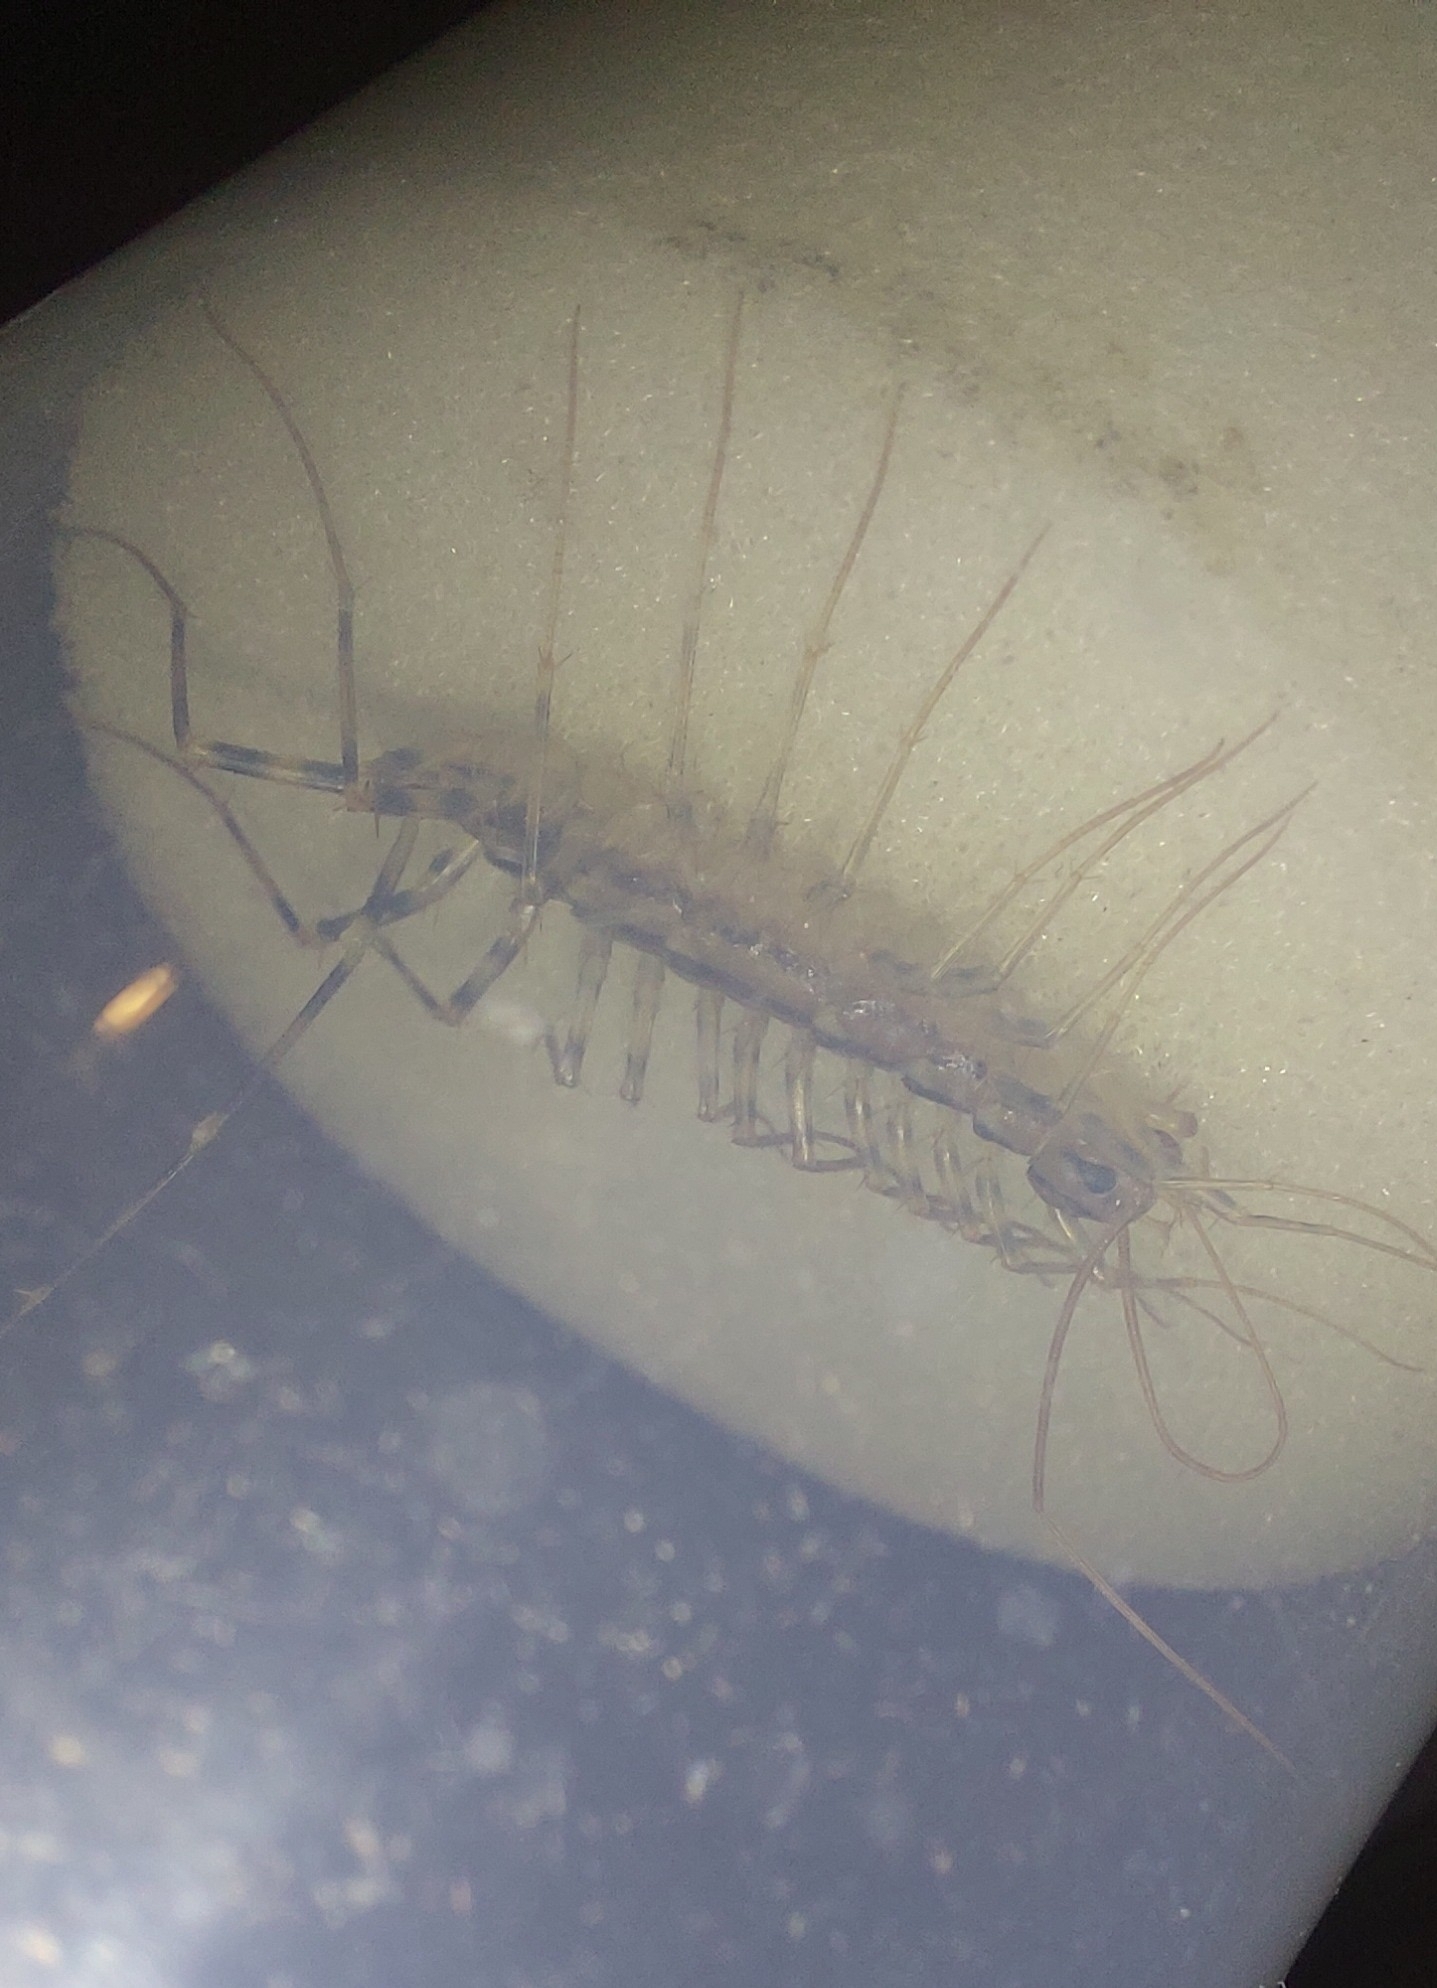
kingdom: Animalia
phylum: Arthropoda
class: Chilopoda
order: Scutigeromorpha
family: Scutigeridae
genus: Scutigera
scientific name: Scutigera coleoptrata
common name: House centipede
